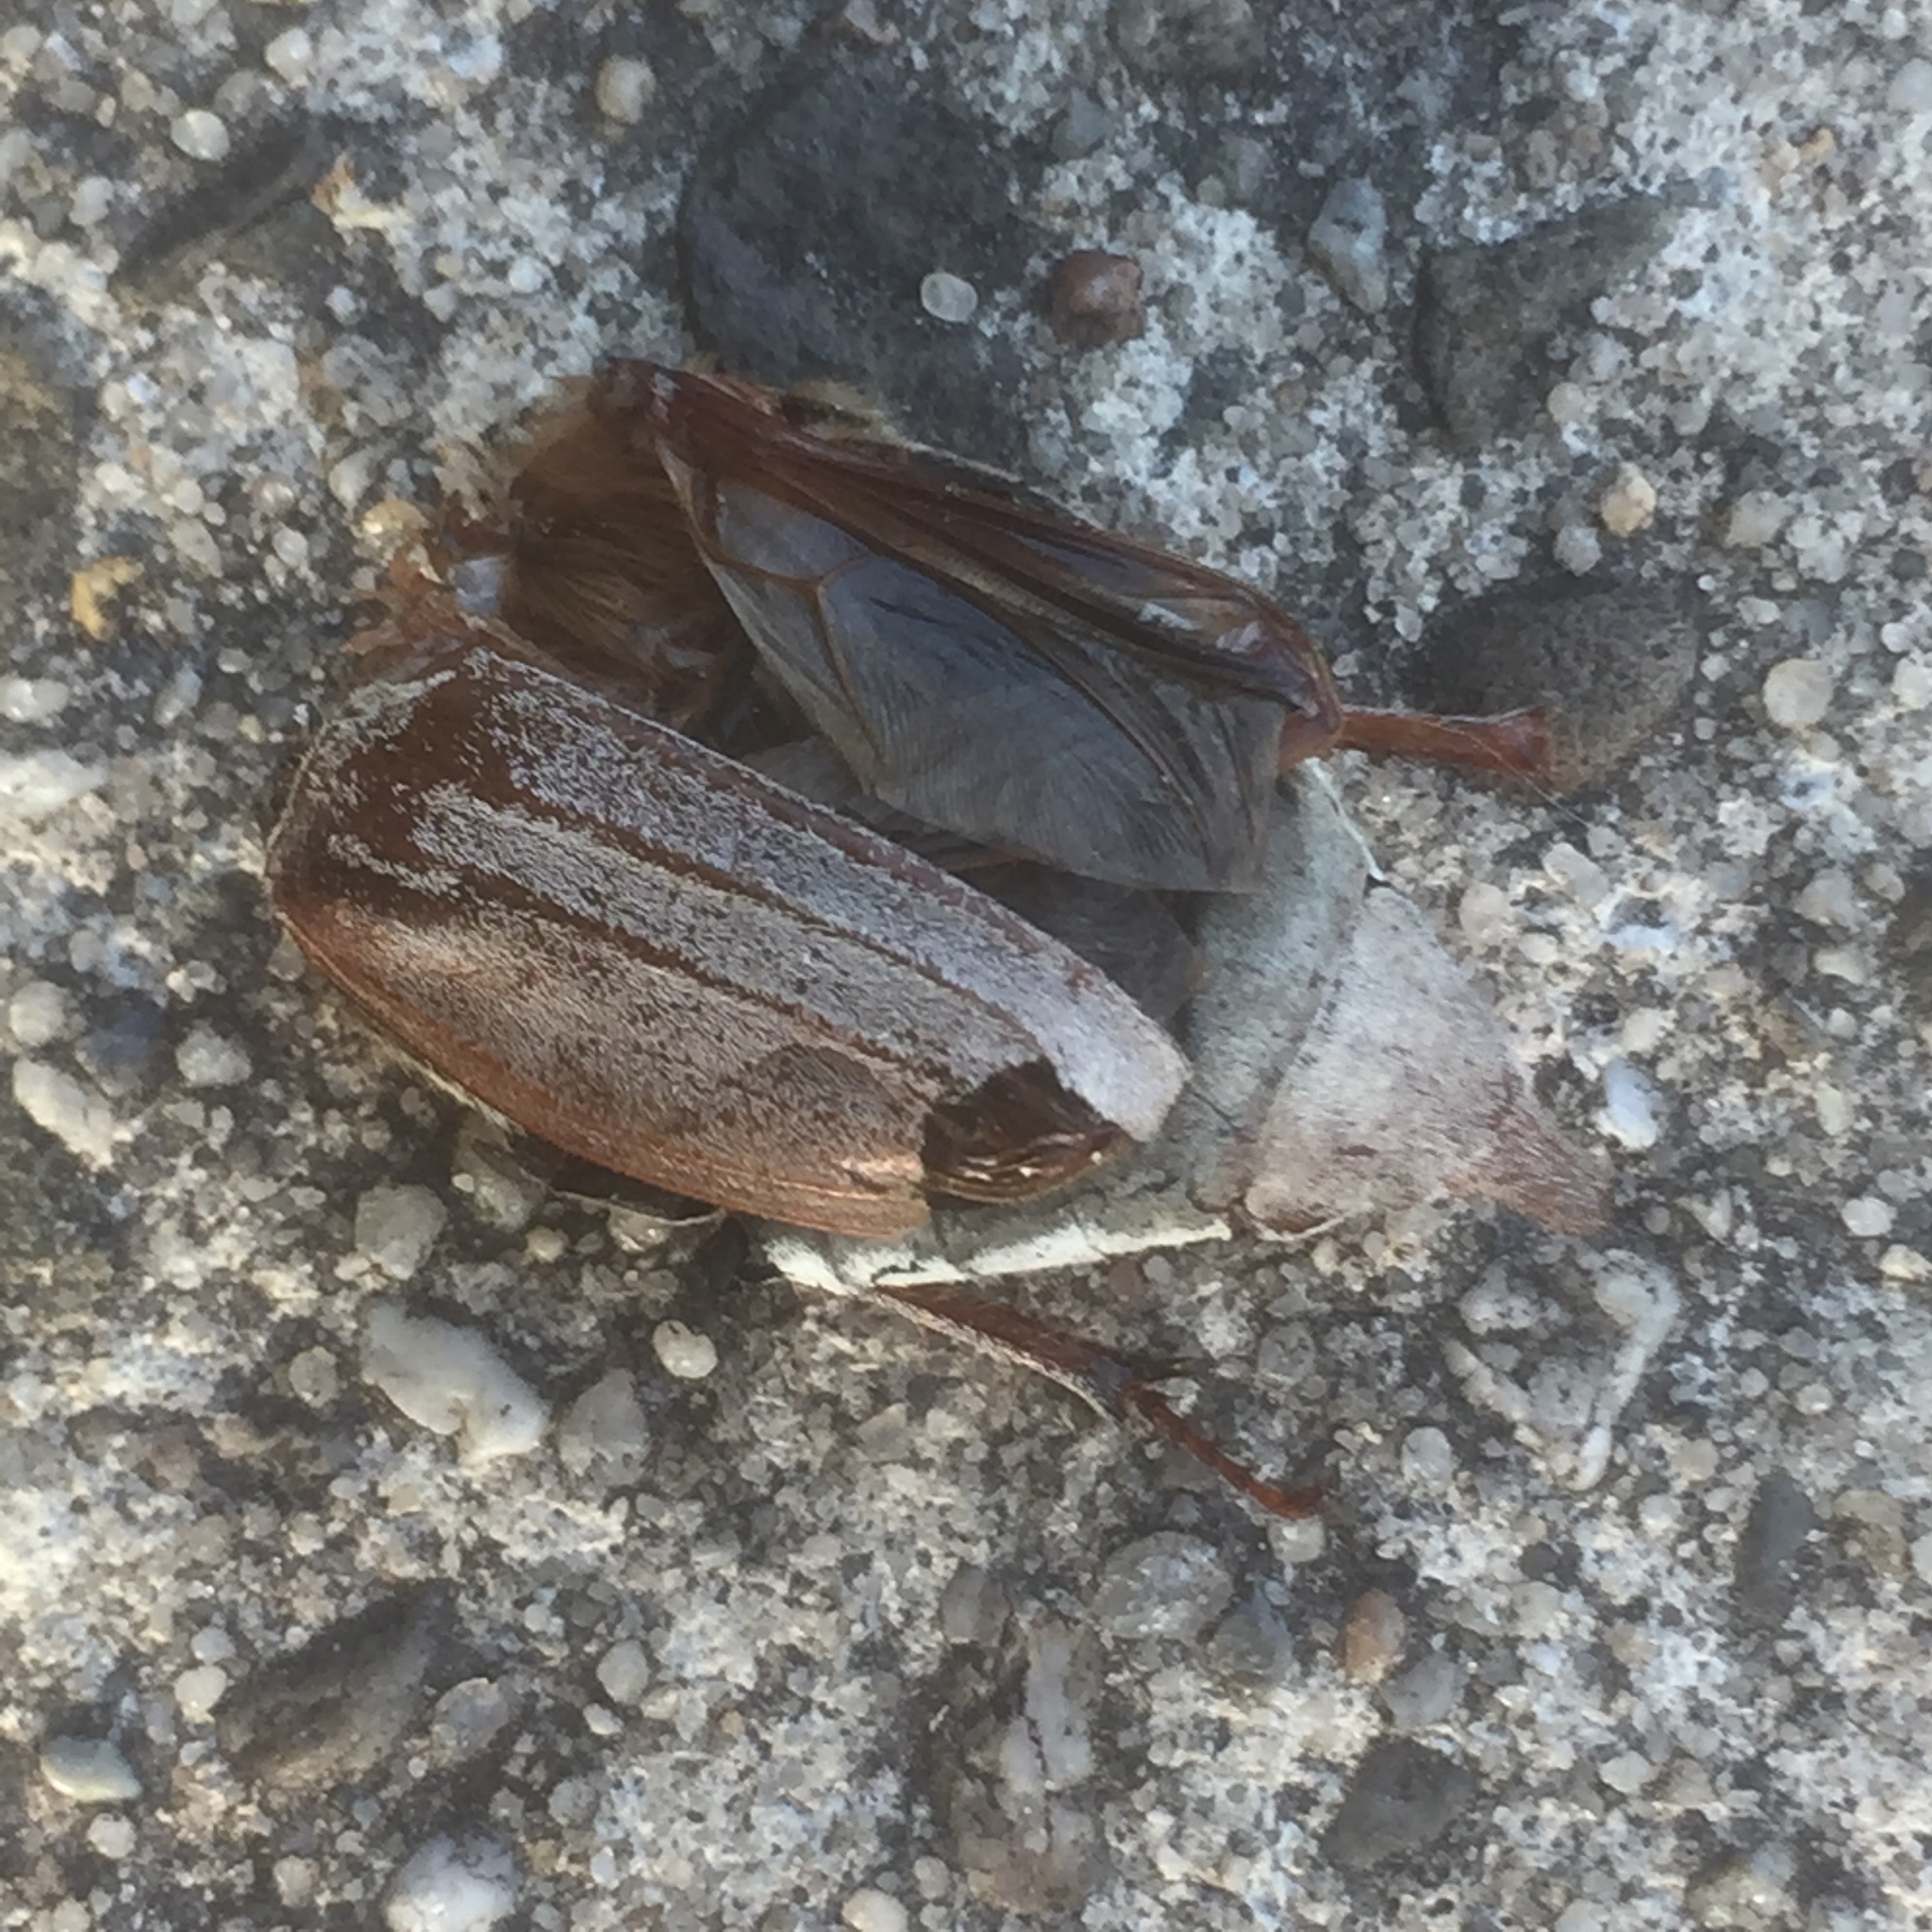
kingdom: Animalia
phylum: Arthropoda
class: Insecta
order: Coleoptera
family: Scarabaeidae
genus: Melolontha
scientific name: Melolontha melolontha
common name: Cockchafer maybeetle
